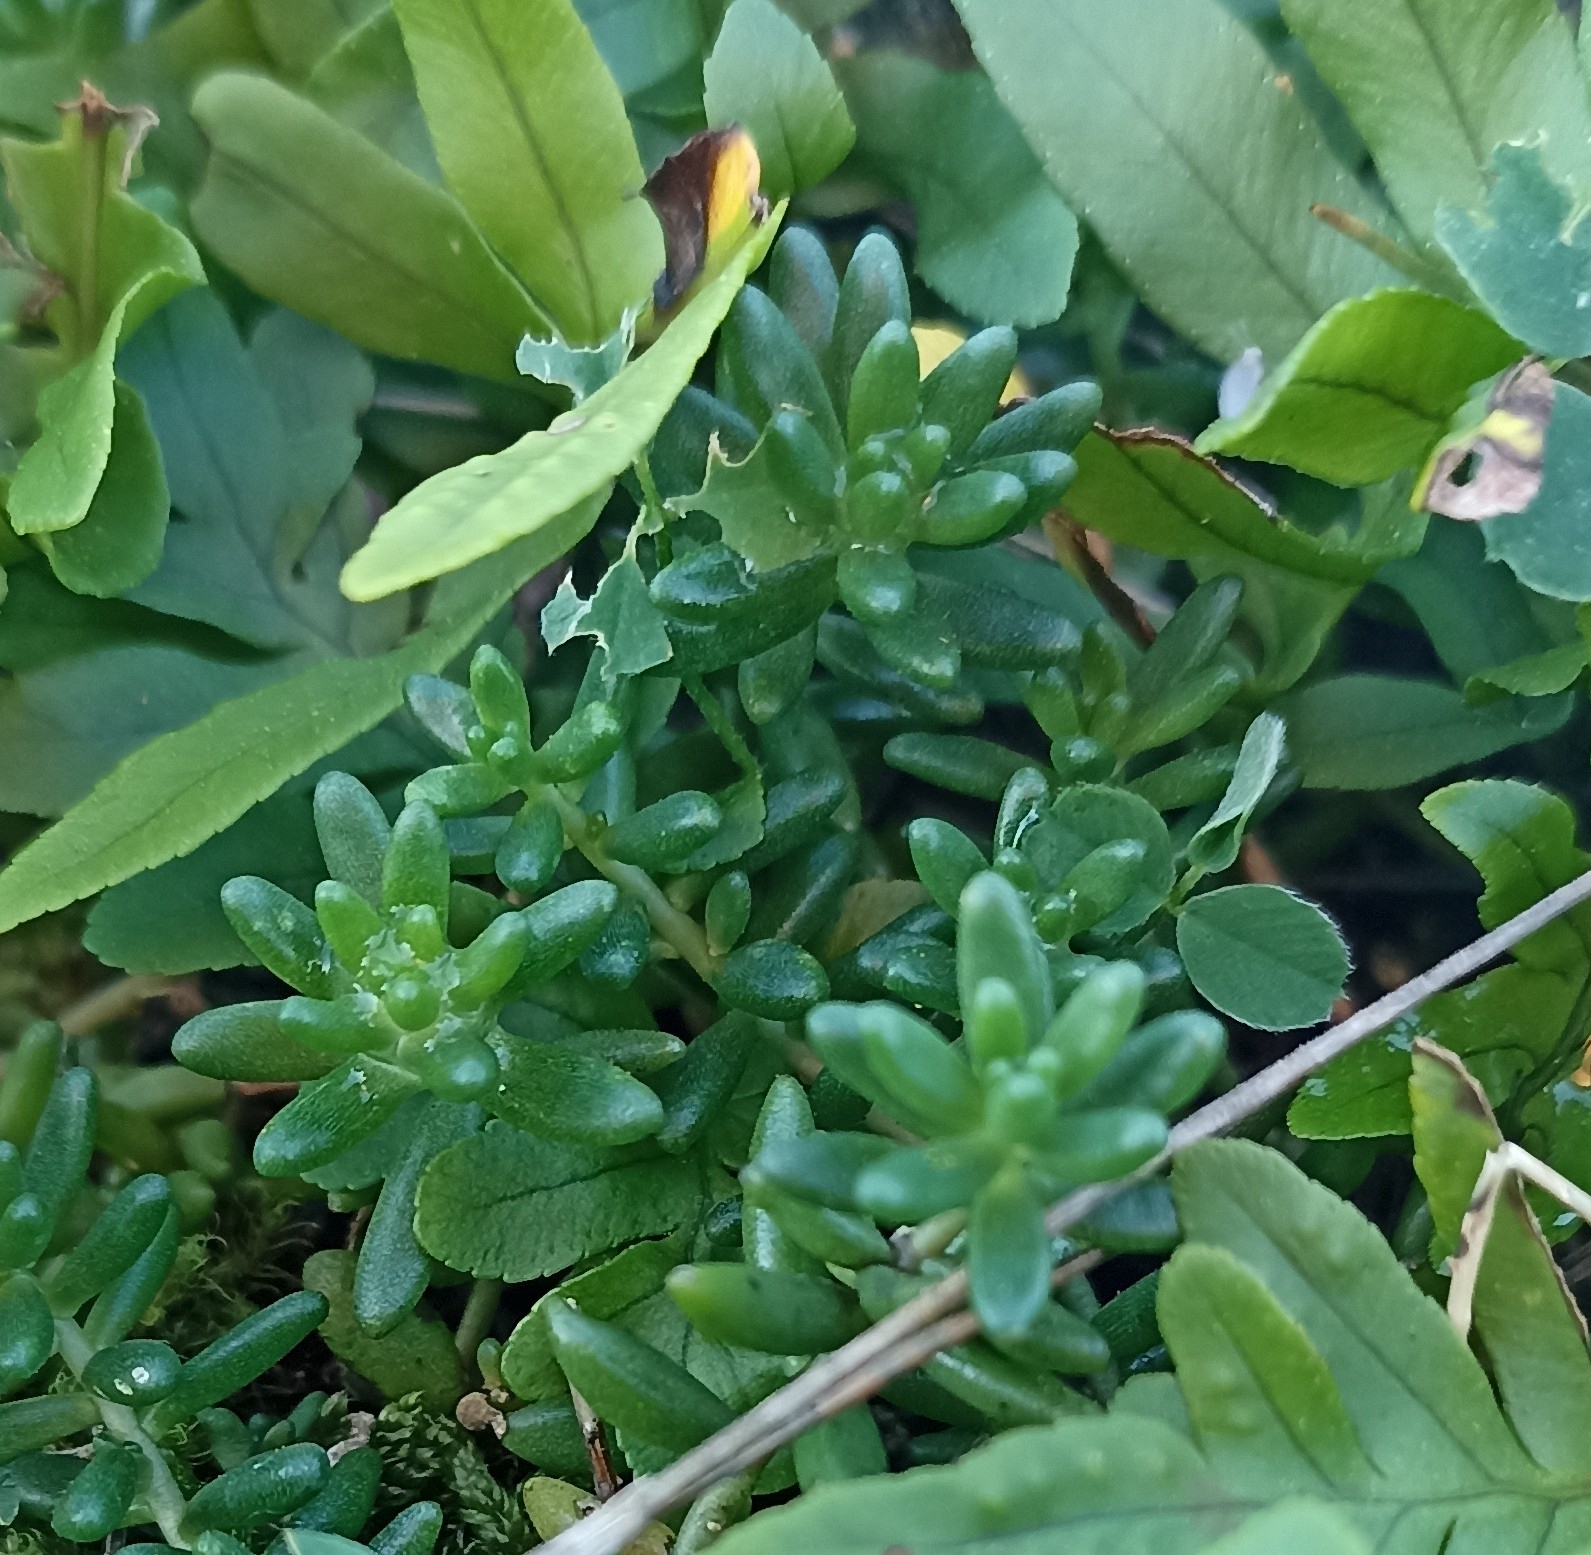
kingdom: Plantae
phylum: Tracheophyta
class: Magnoliopsida
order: Saxifragales
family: Crassulaceae
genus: Sedum
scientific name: Sedum album
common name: White stonecrop
